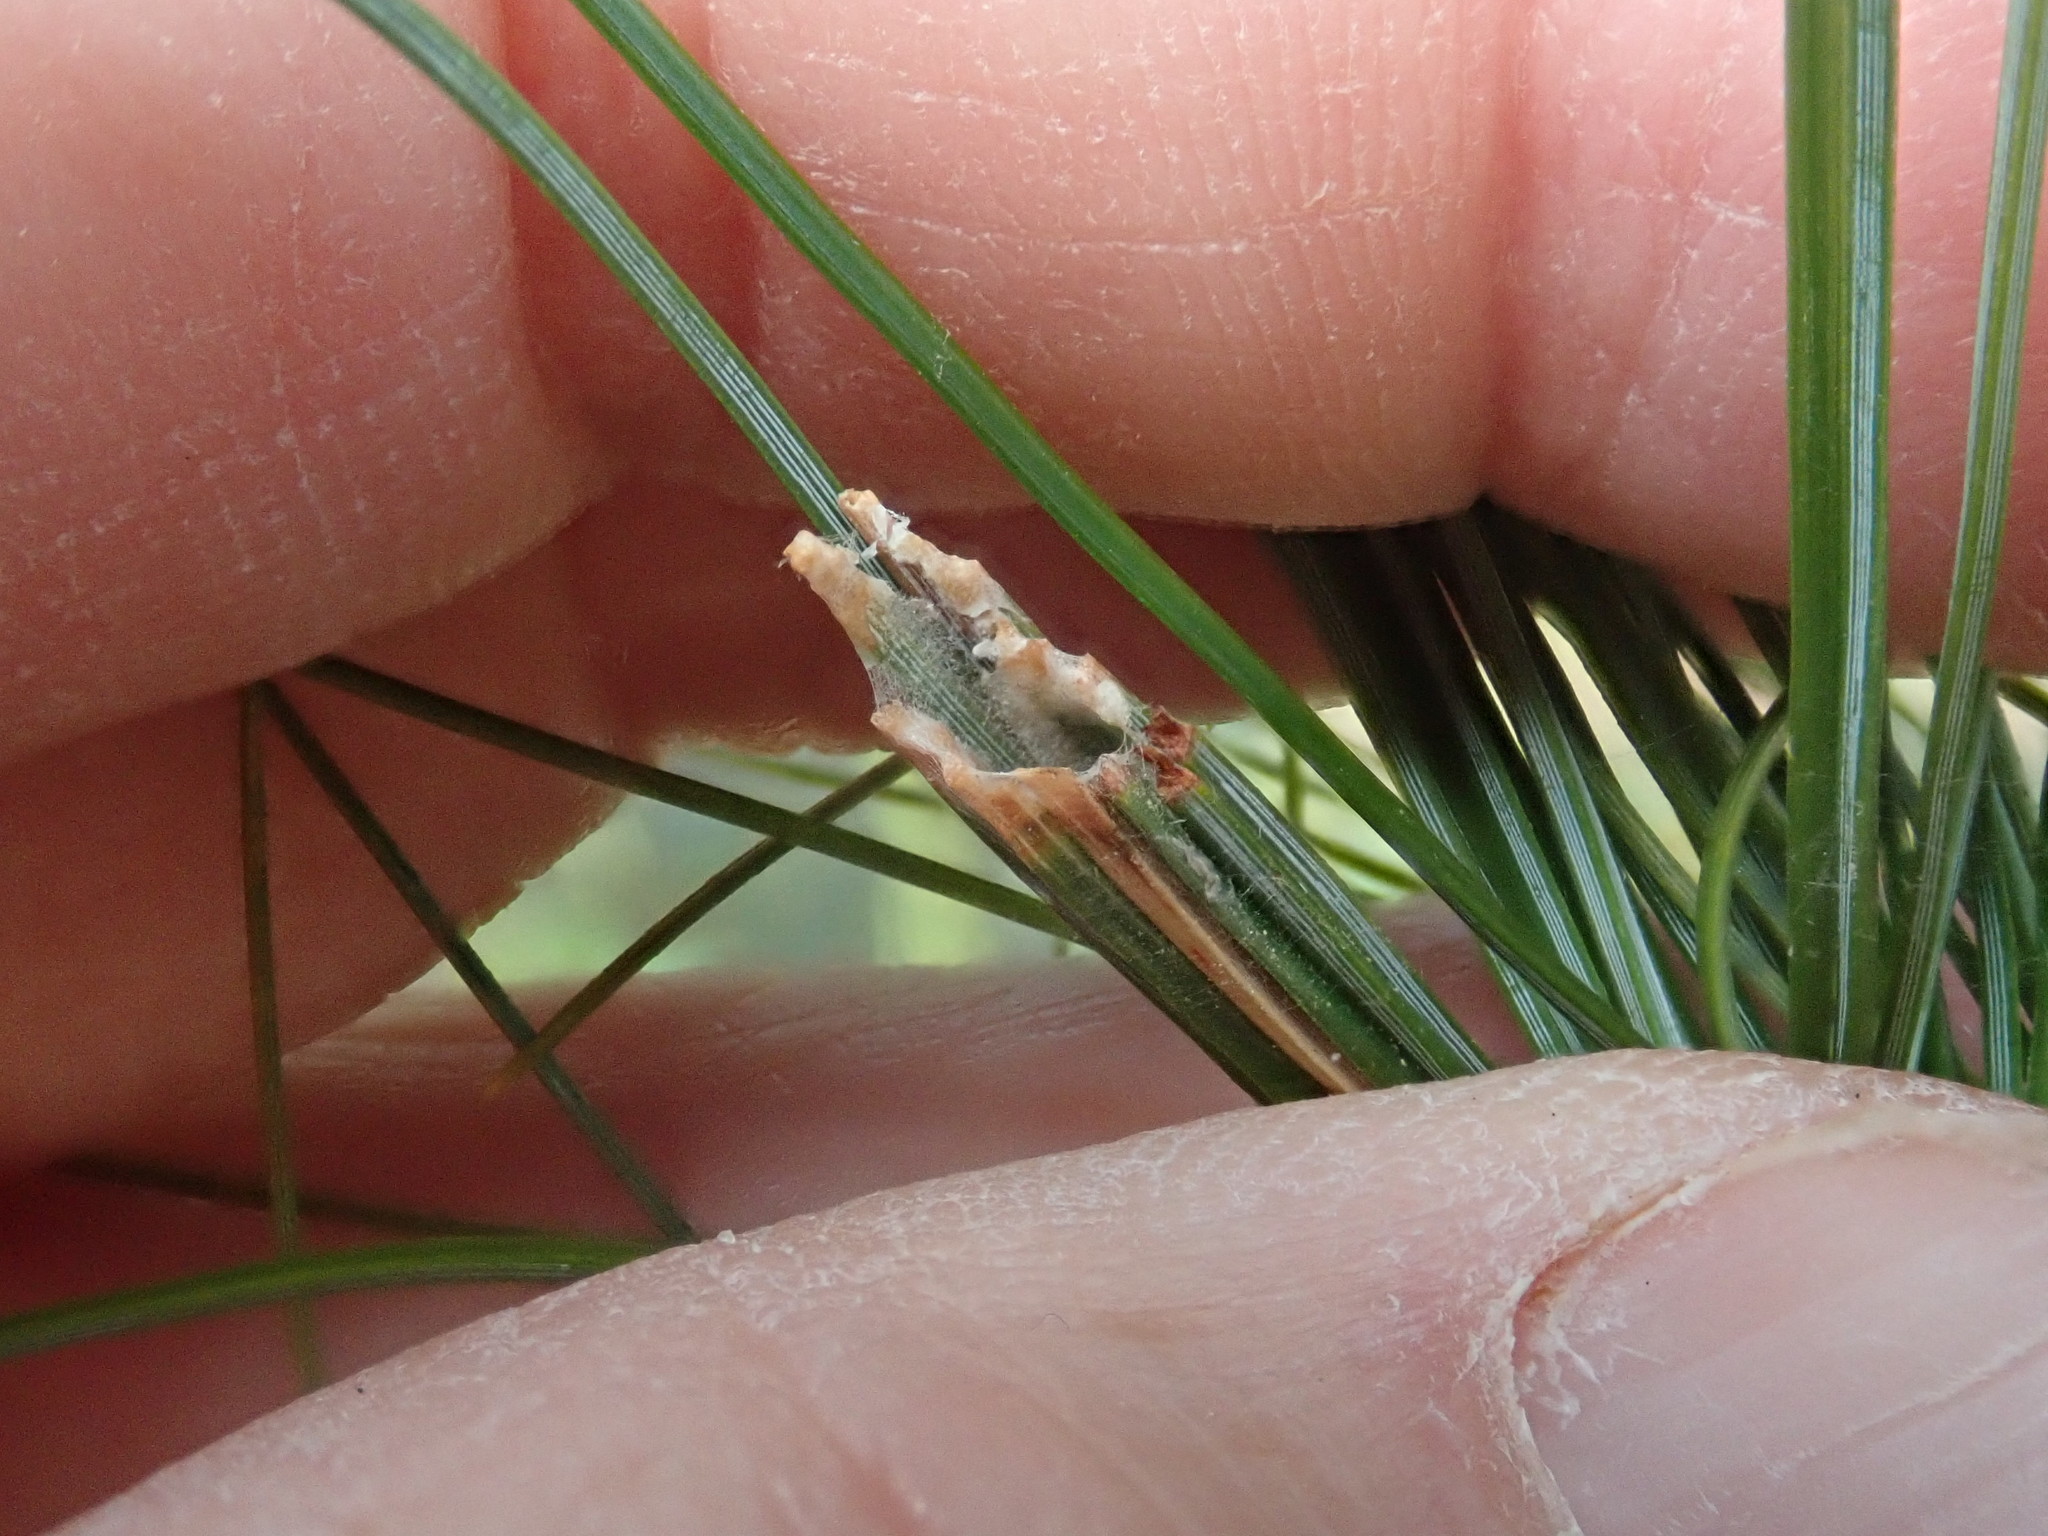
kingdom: Animalia
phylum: Arthropoda
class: Insecta
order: Lepidoptera
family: Tortricidae
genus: Argyrotaenia
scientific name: Argyrotaenia pinatubana
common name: Pine tube moth
